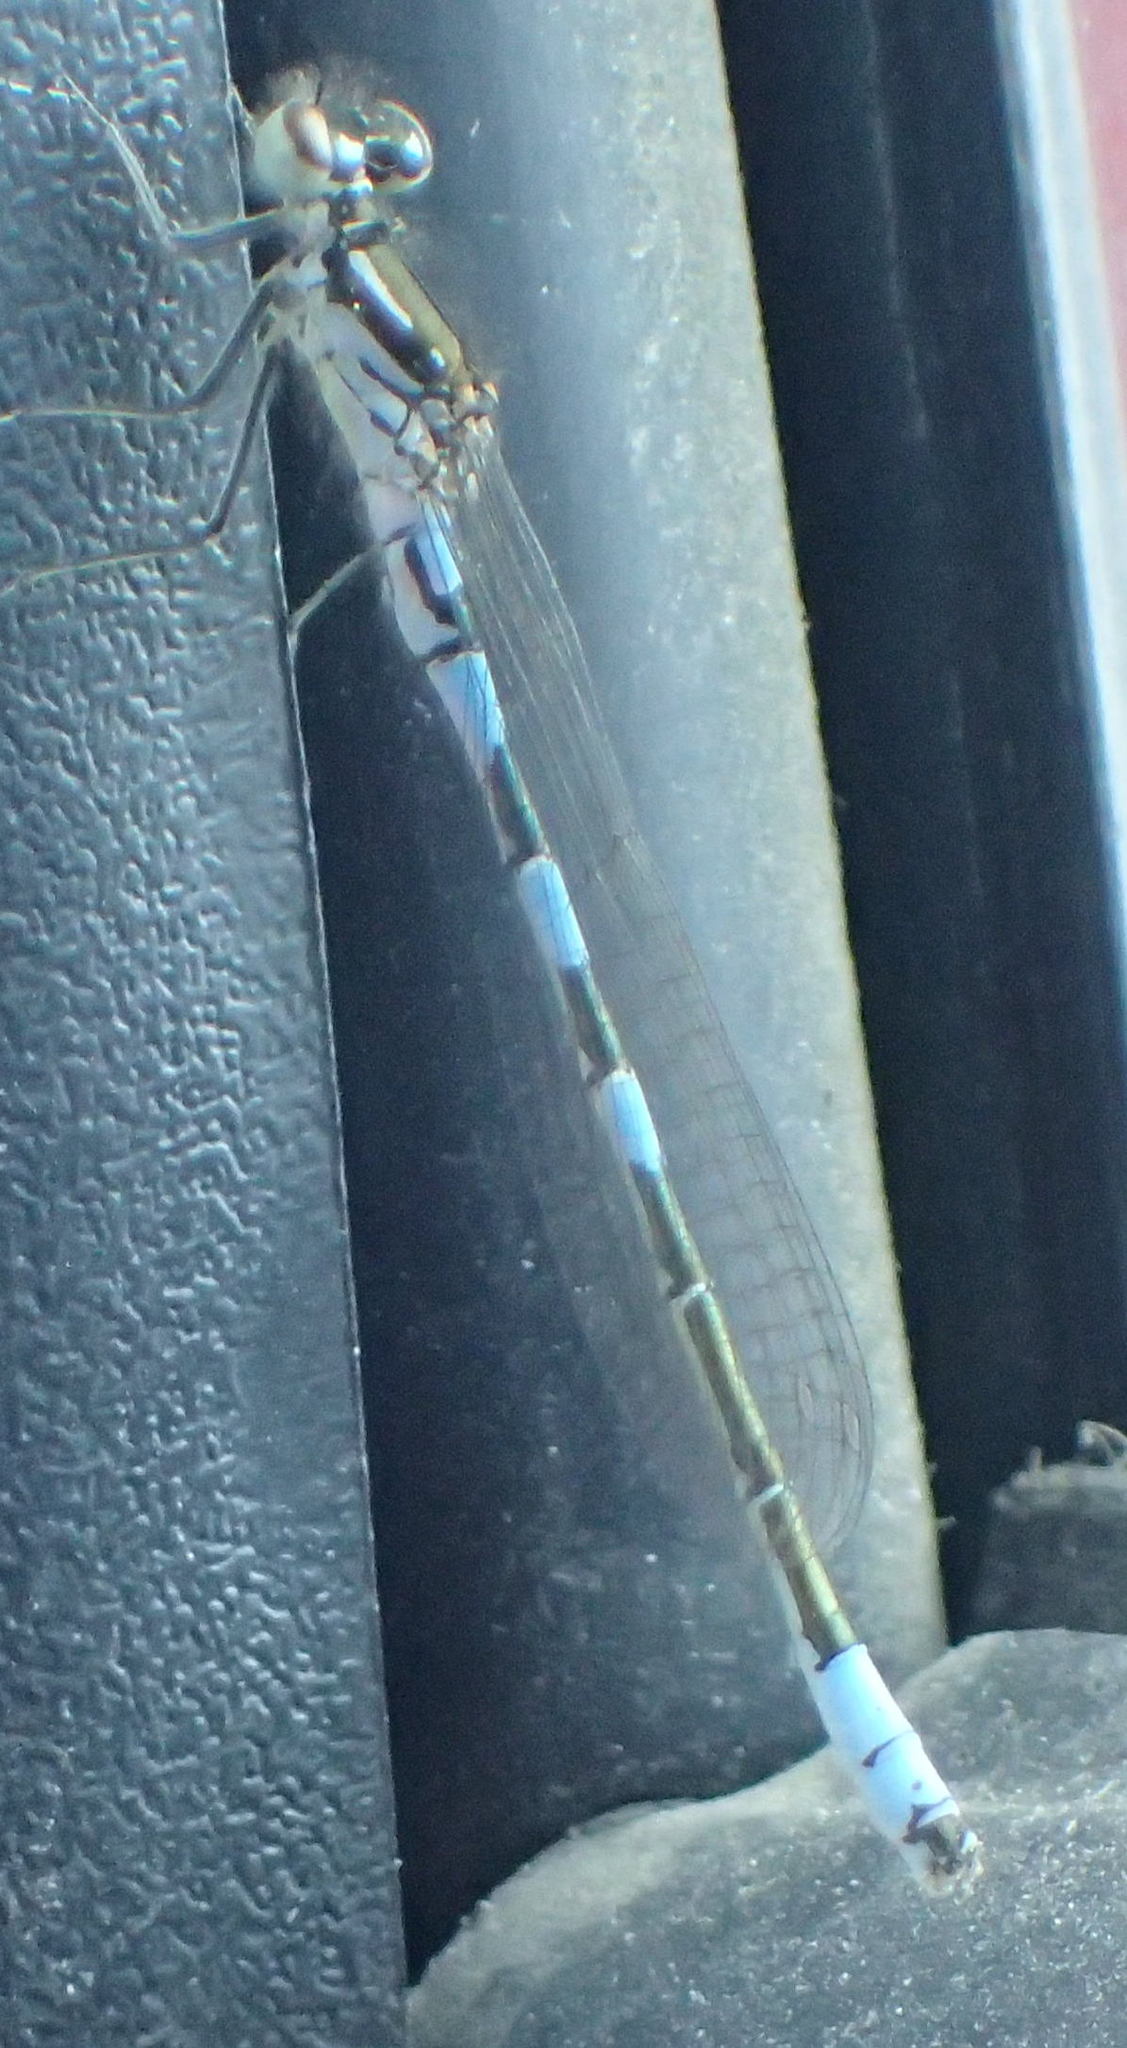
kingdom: Animalia
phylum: Arthropoda
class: Insecta
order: Odonata
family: Coenagrionidae
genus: Coenagrion
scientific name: Coenagrion resolutum
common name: Taiga bluet
